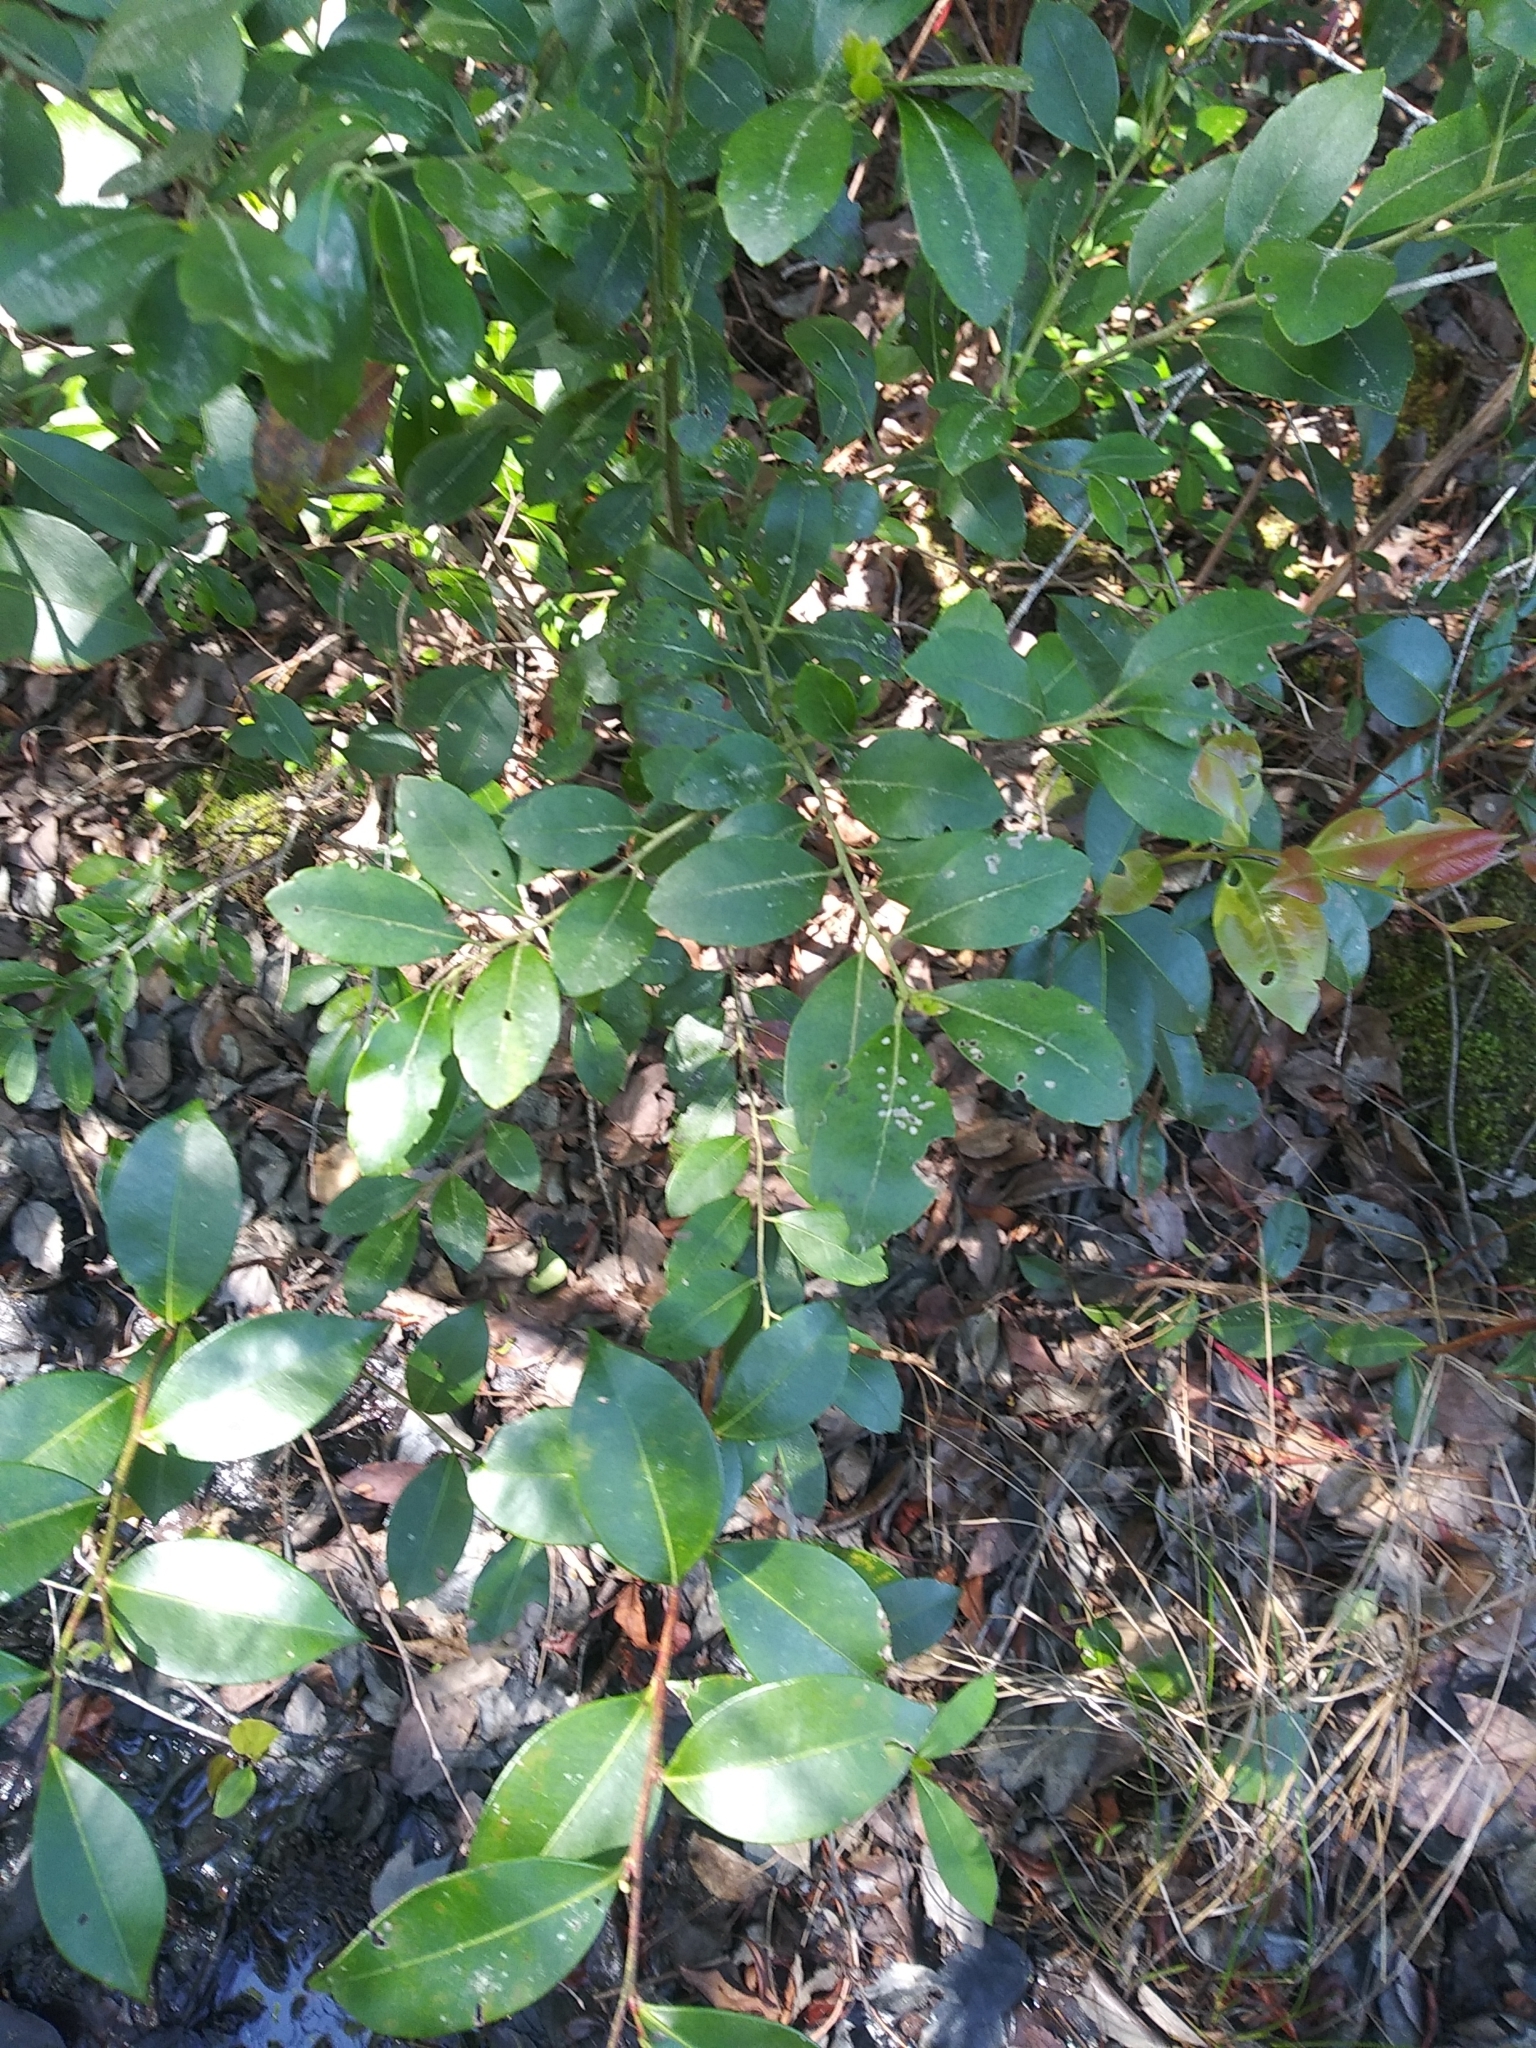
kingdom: Plantae
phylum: Tracheophyta
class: Magnoliopsida
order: Ericales
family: Ericaceae
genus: Lyonia
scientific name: Lyonia lucida
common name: Fetterbush
